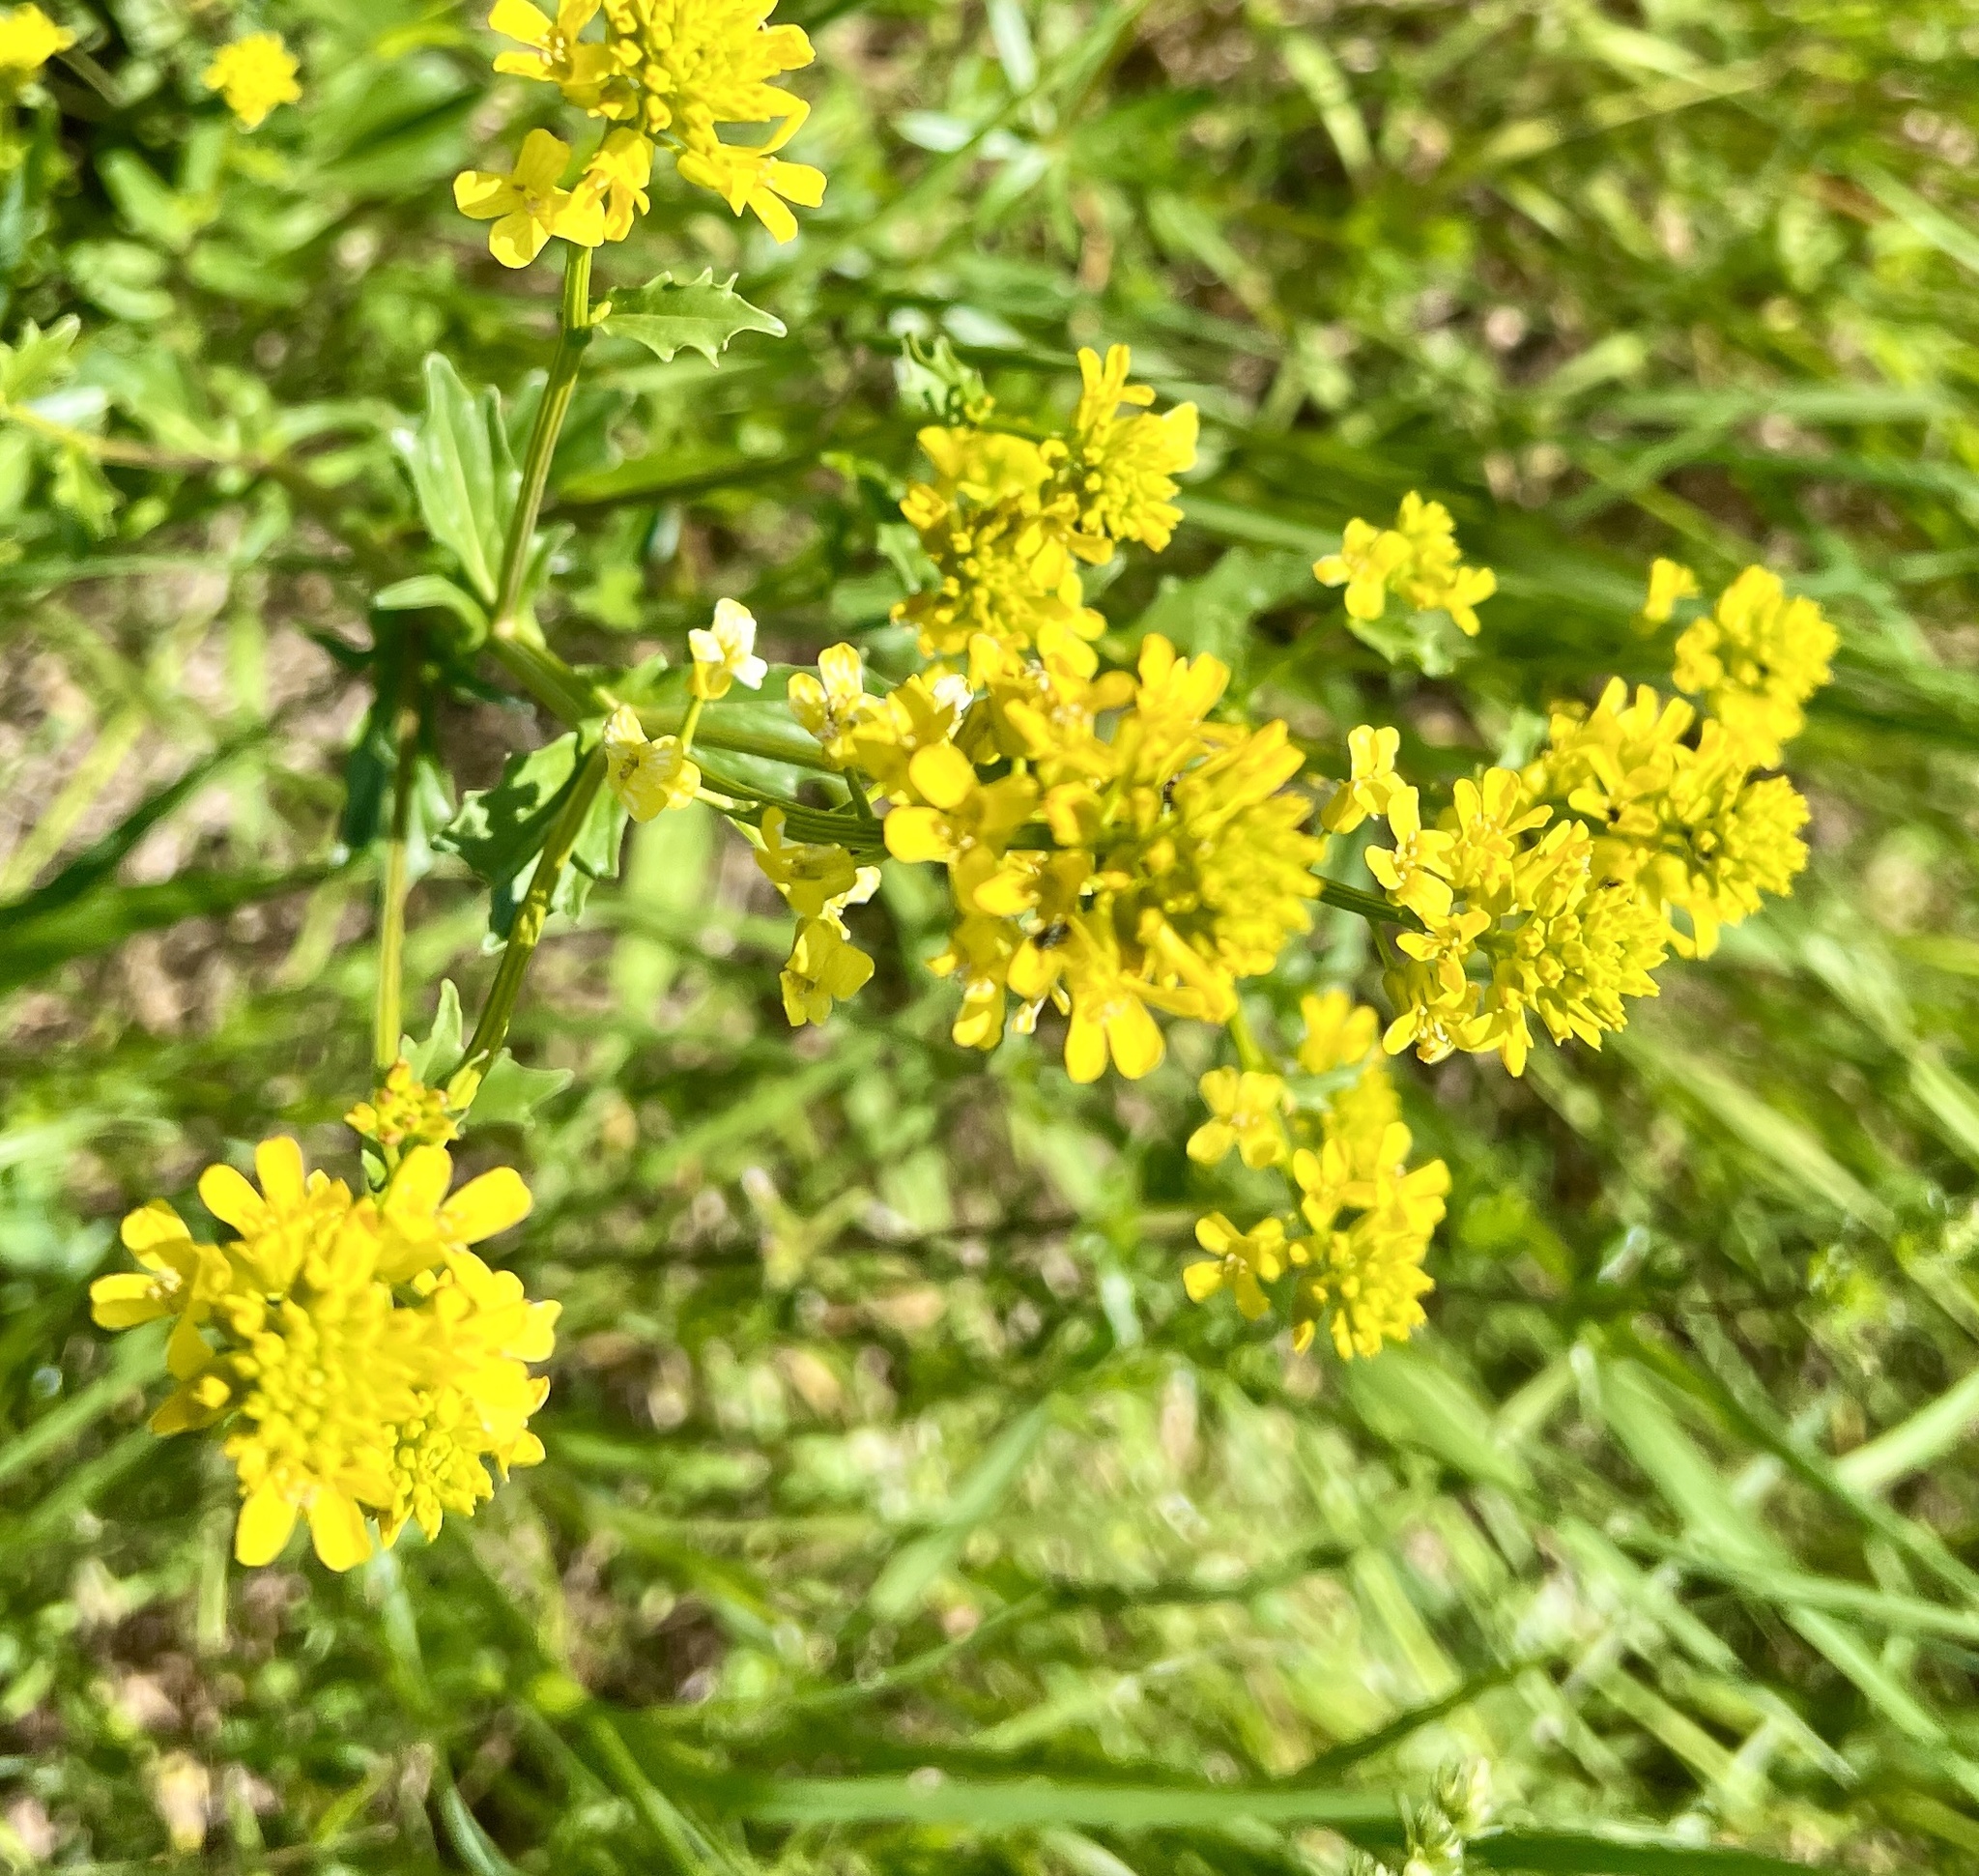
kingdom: Plantae
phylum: Tracheophyta
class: Magnoliopsida
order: Brassicales
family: Brassicaceae
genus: Barbarea
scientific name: Barbarea vulgaris
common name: Cressy-greens
